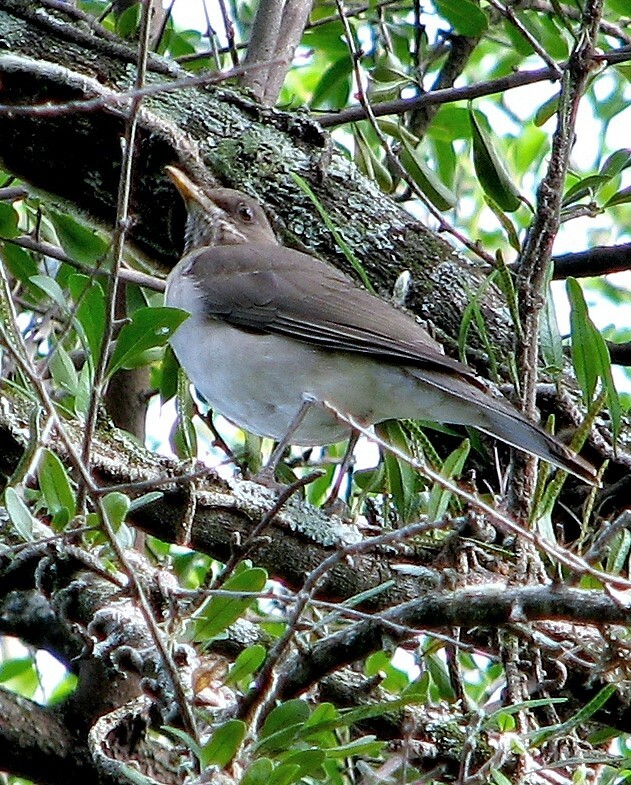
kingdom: Animalia
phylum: Chordata
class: Aves
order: Passeriformes
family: Turdidae
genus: Turdus
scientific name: Turdus amaurochalinus
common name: Creamy-bellied thrush
